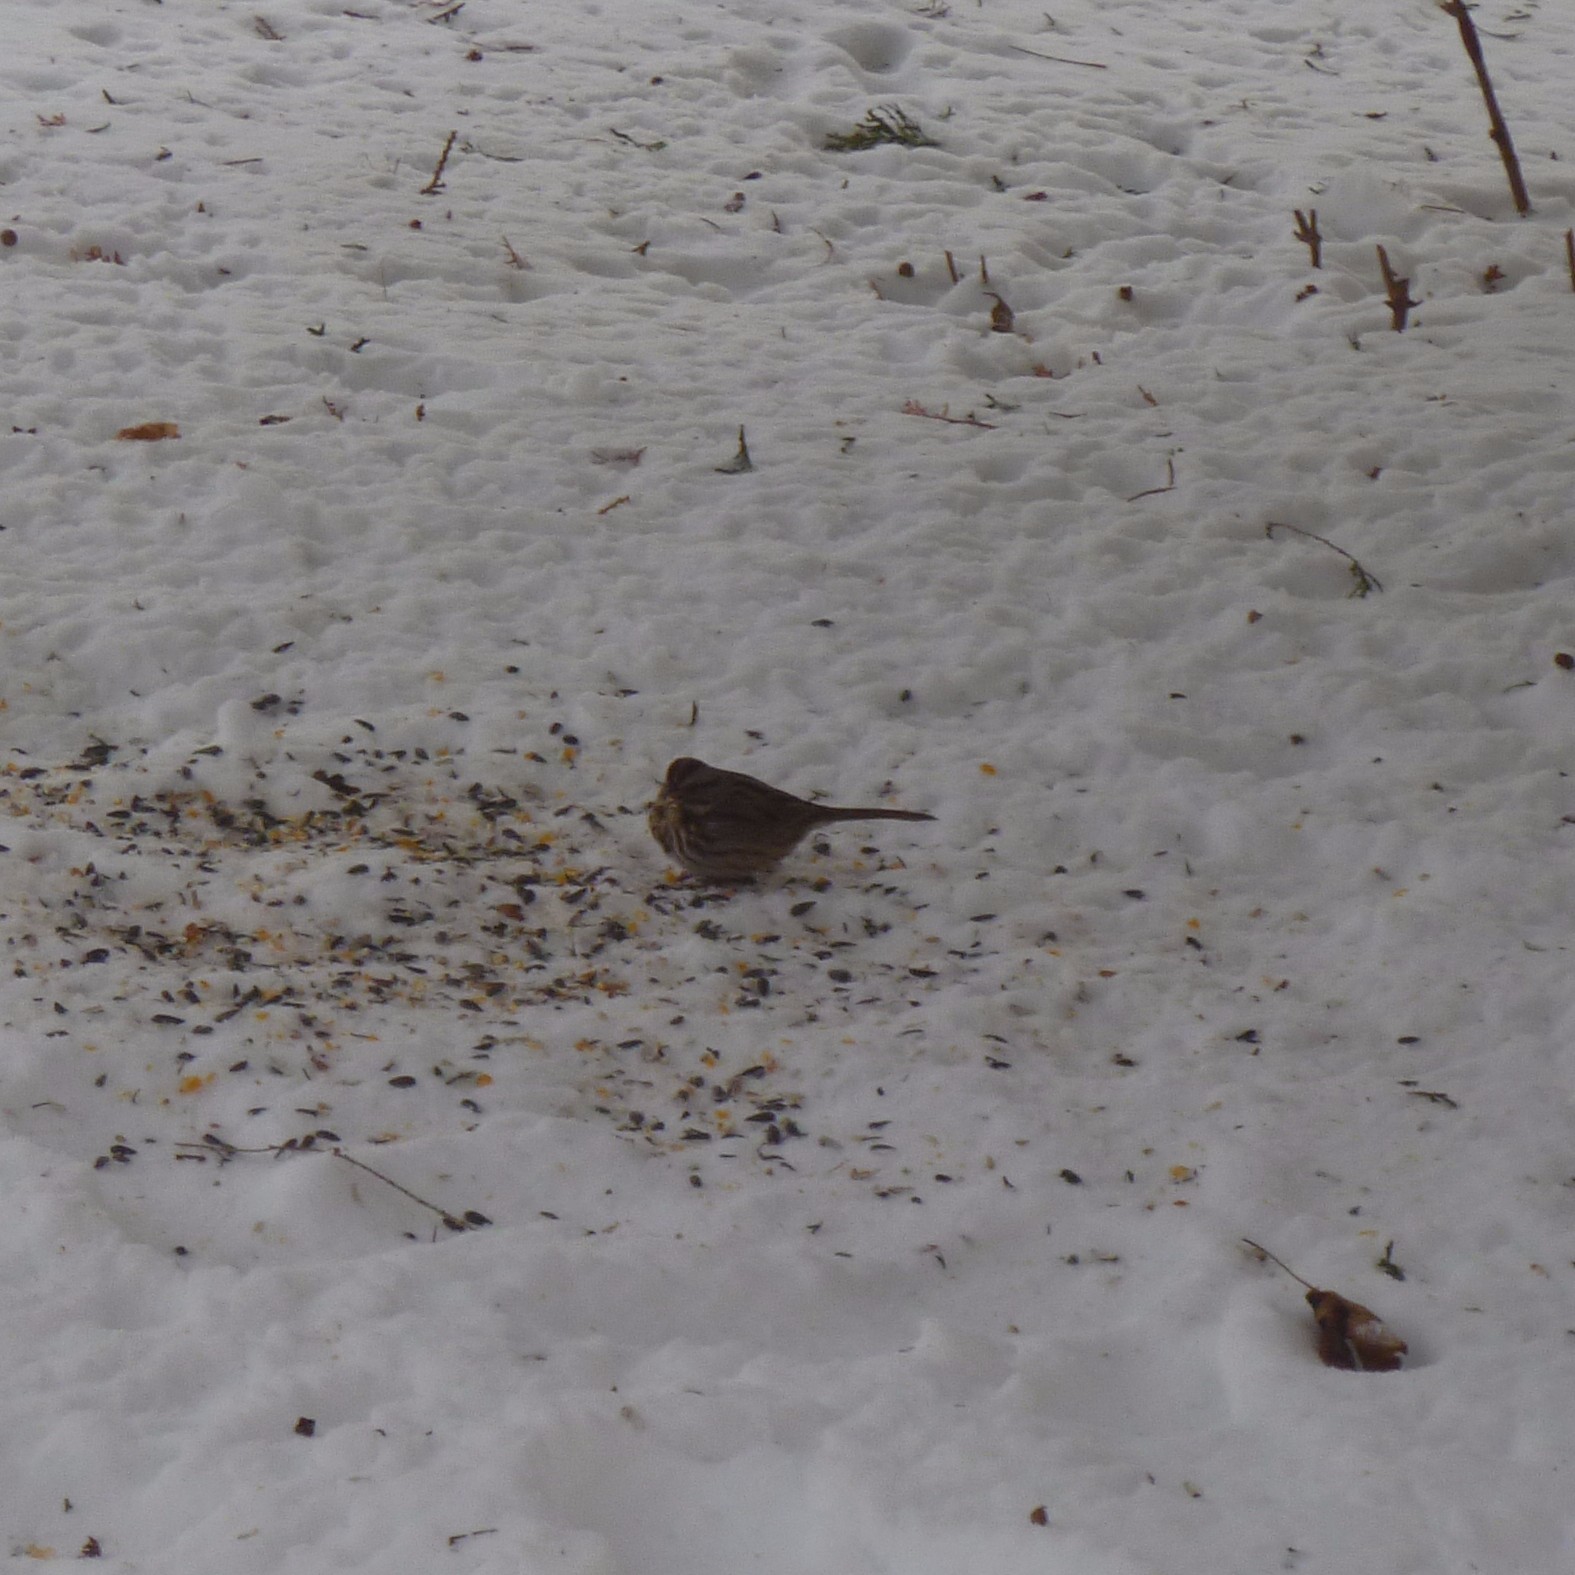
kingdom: Animalia
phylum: Chordata
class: Aves
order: Passeriformes
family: Passerellidae
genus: Melospiza
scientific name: Melospiza melodia
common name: Song sparrow
